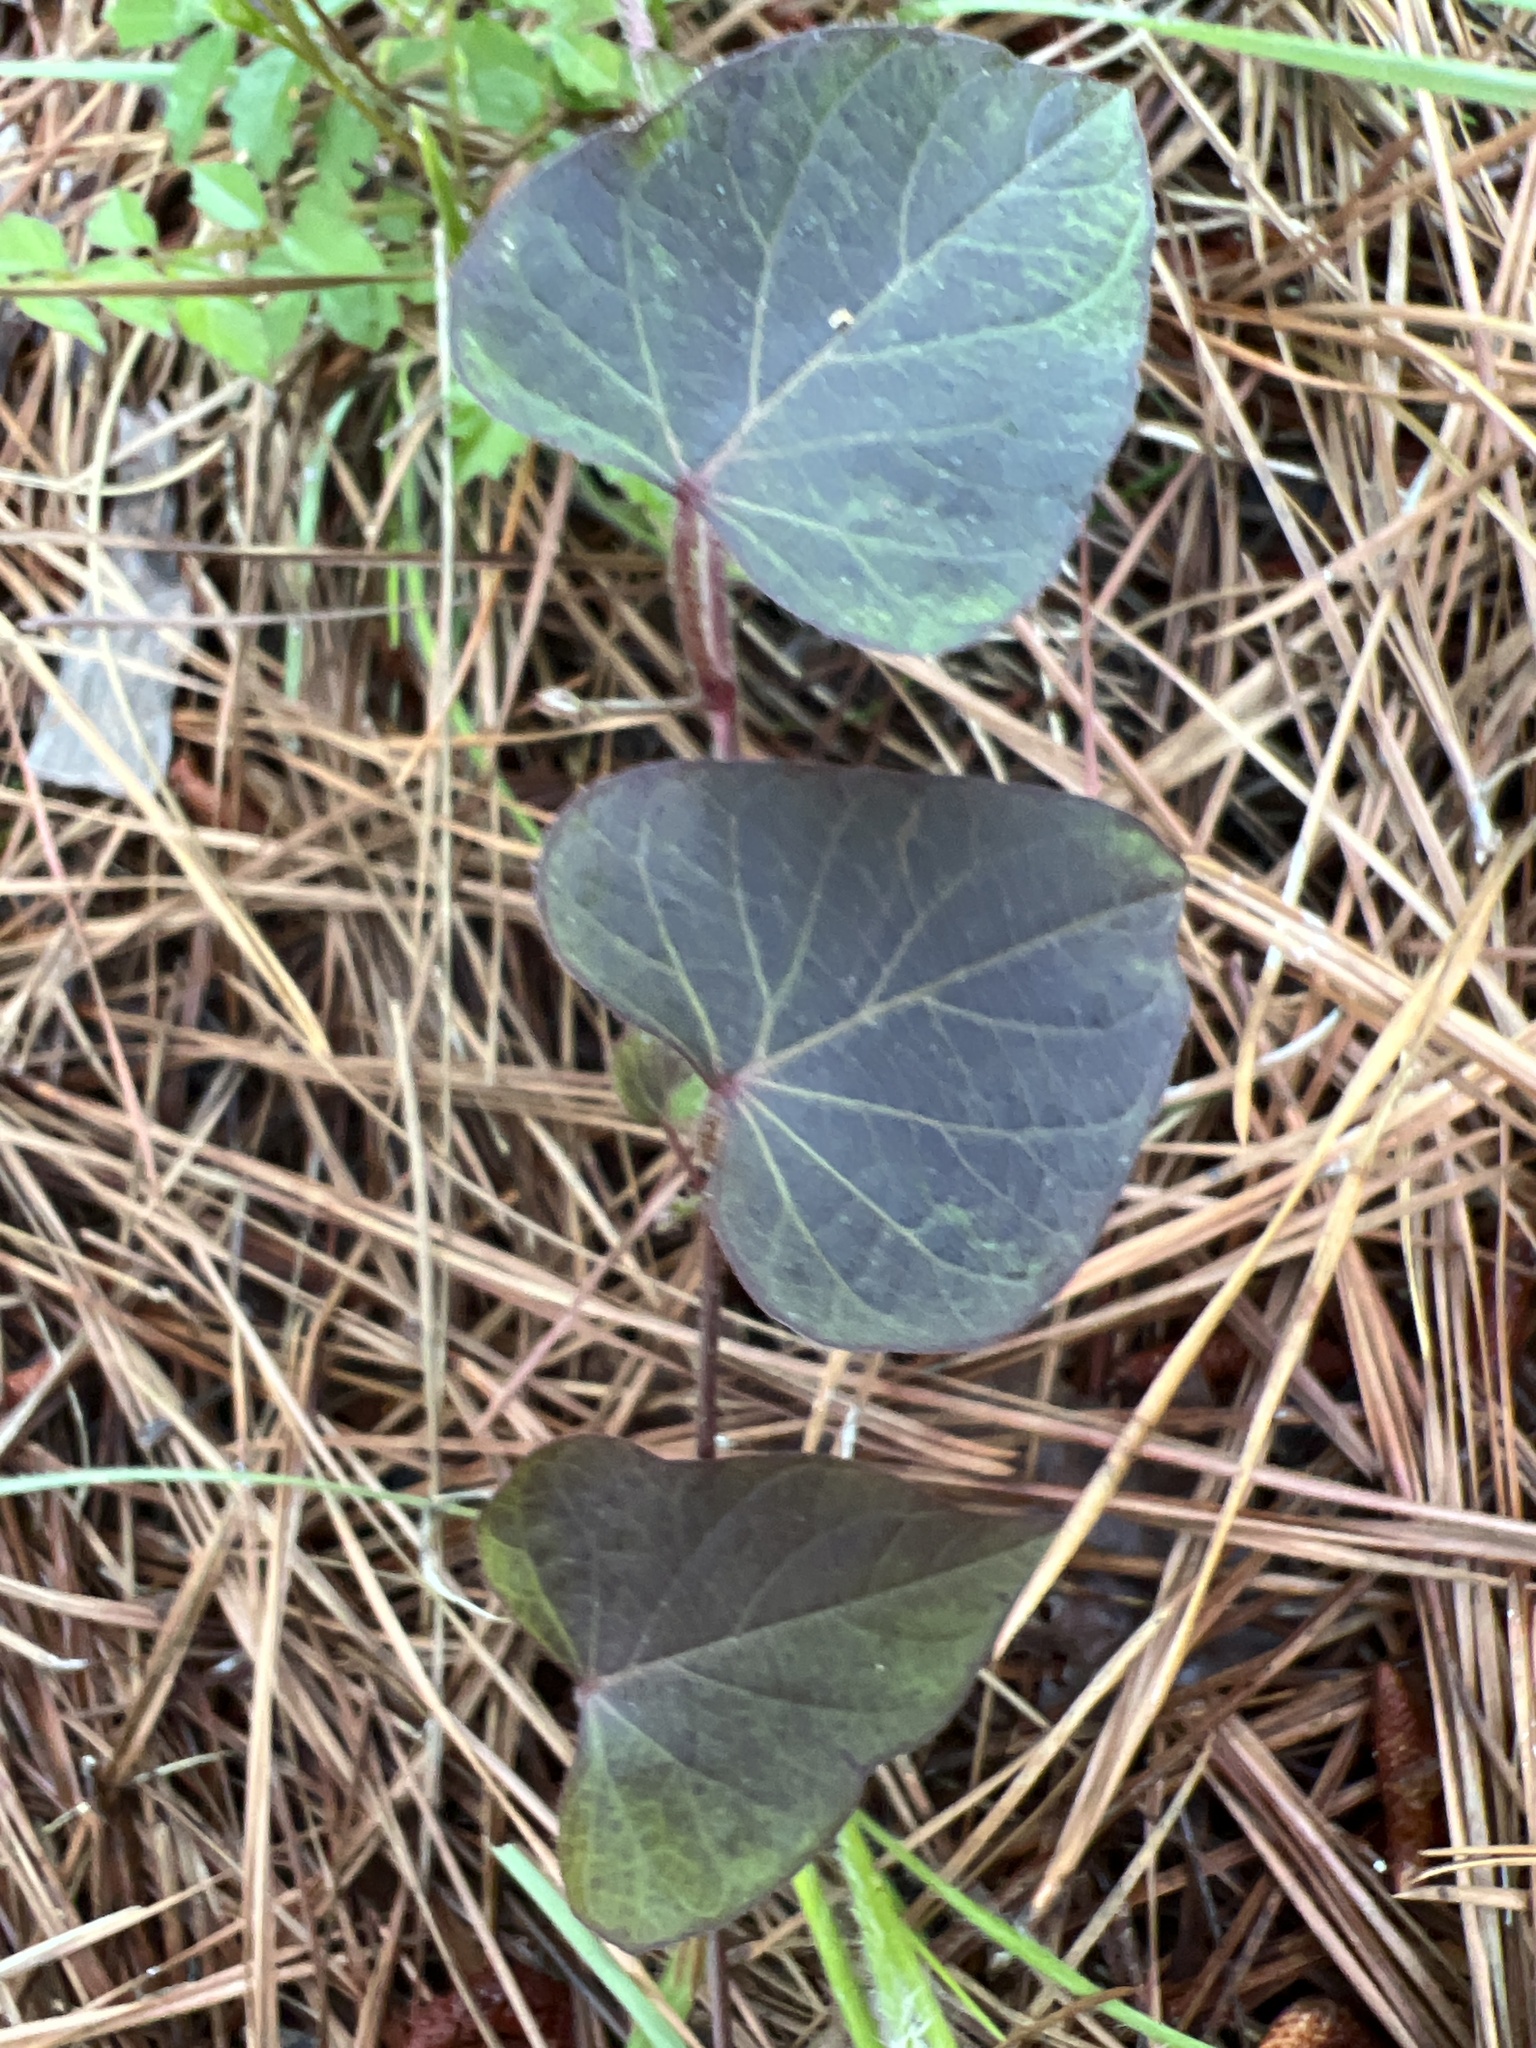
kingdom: Plantae
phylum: Tracheophyta
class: Magnoliopsida
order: Solanales
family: Convolvulaceae
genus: Ipomoea
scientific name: Ipomoea pandurata
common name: Man-of-the-earth
